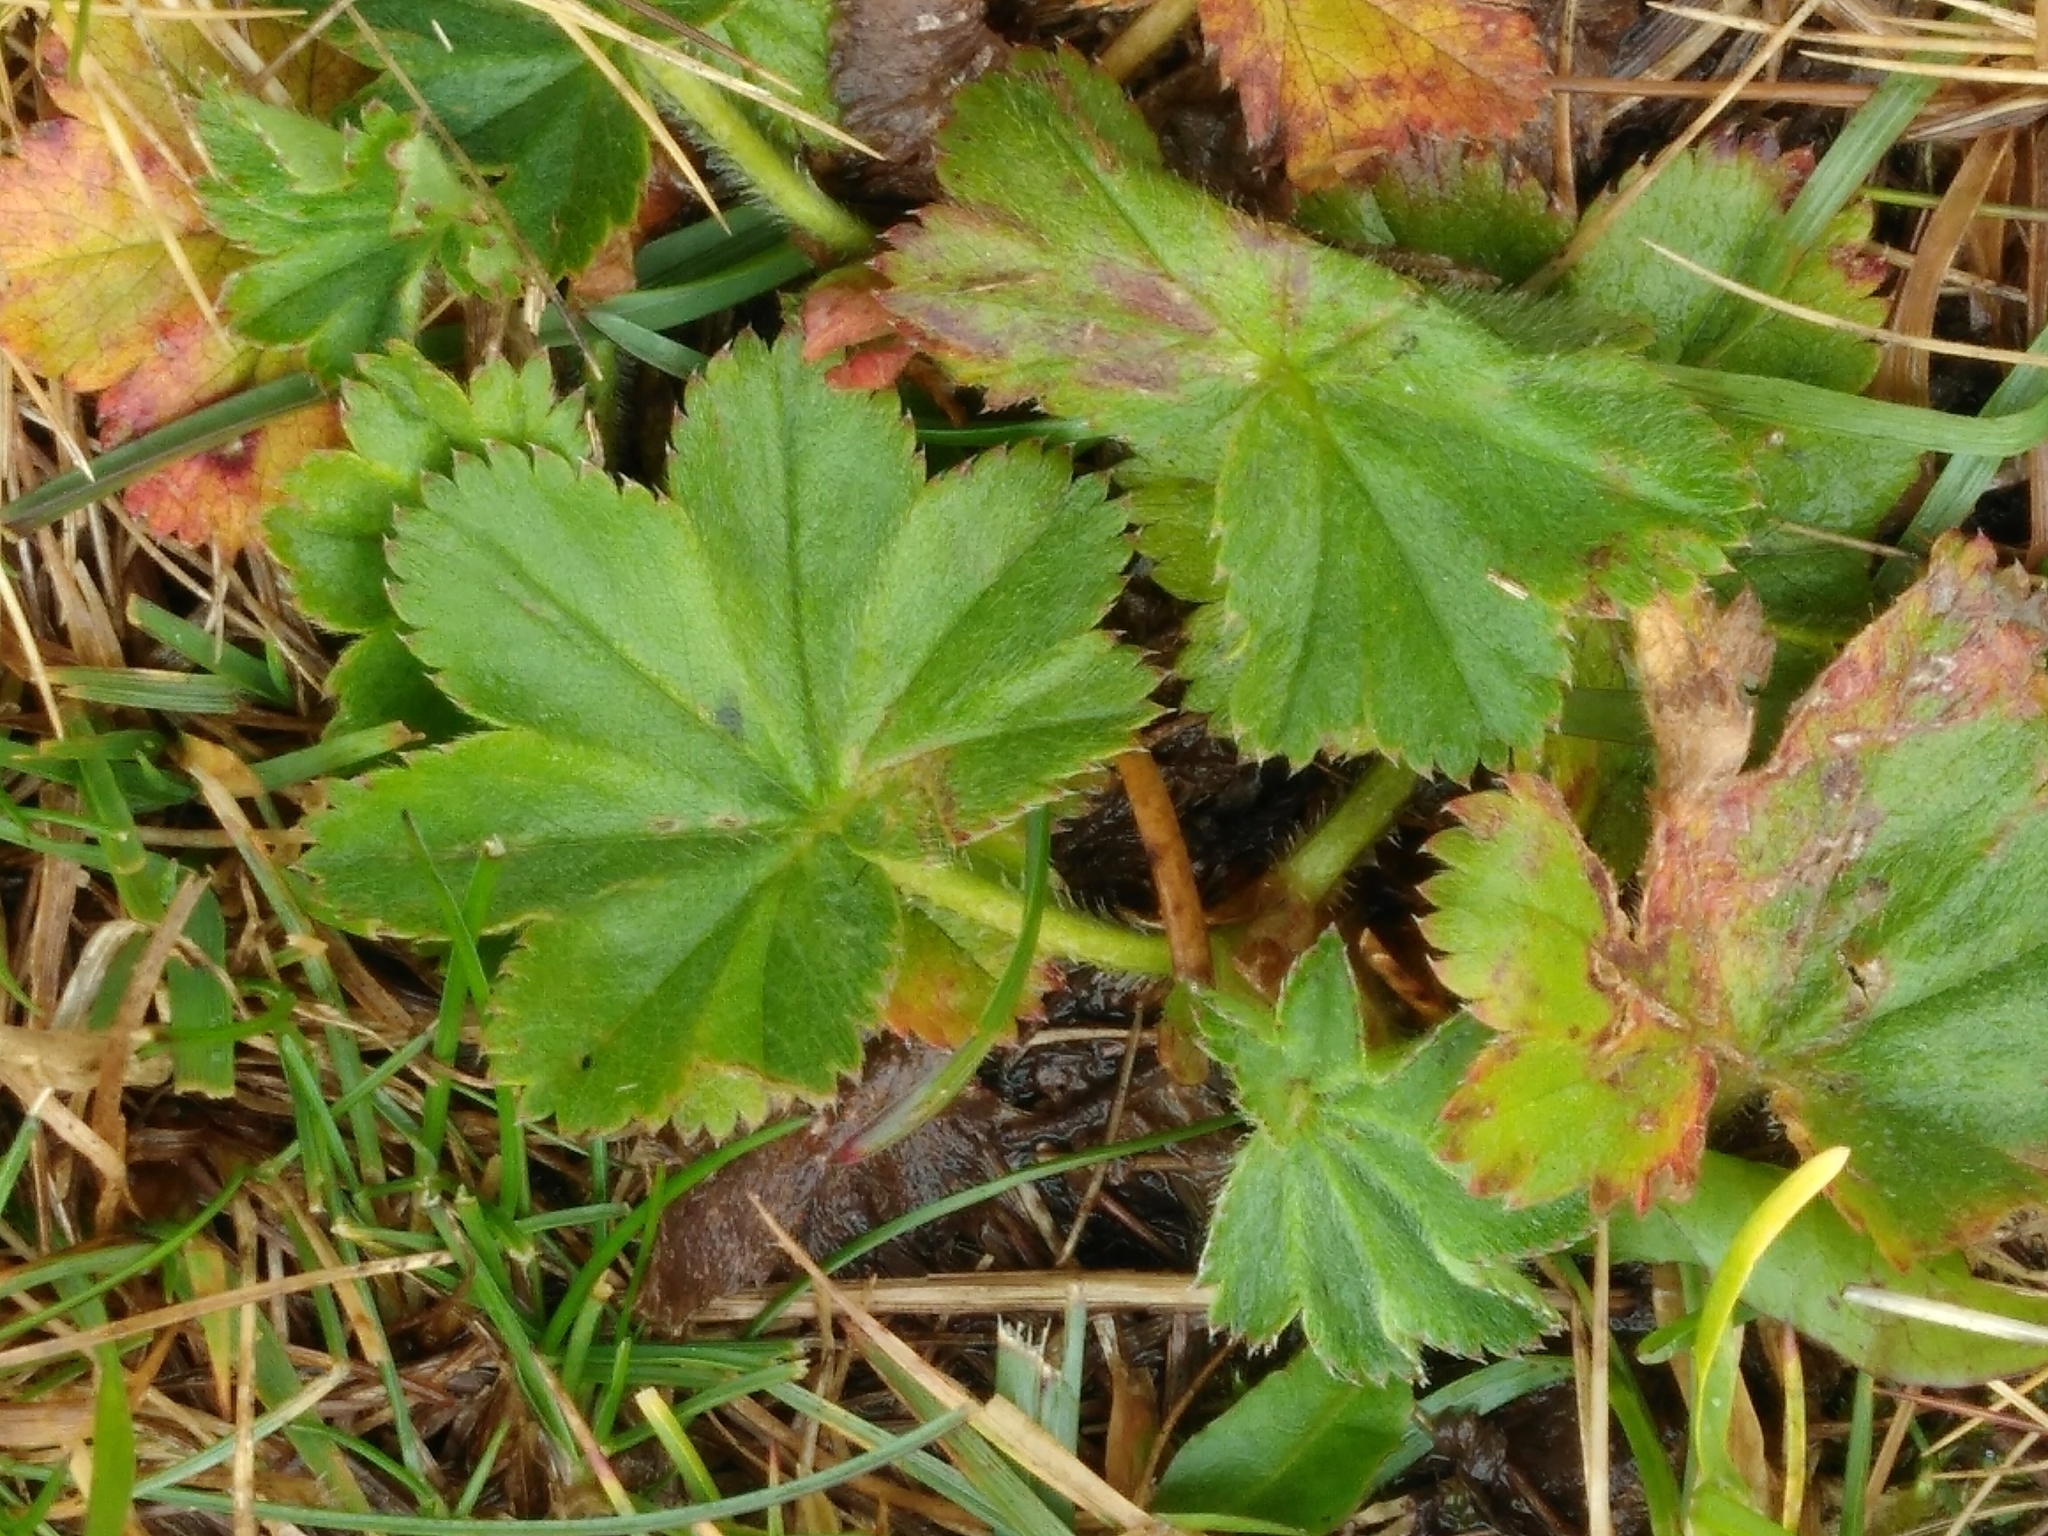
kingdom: Plantae
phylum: Tracheophyta
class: Magnoliopsida
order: Rosales
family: Rosaceae
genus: Alchemilla
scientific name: Alchemilla vulgaris
